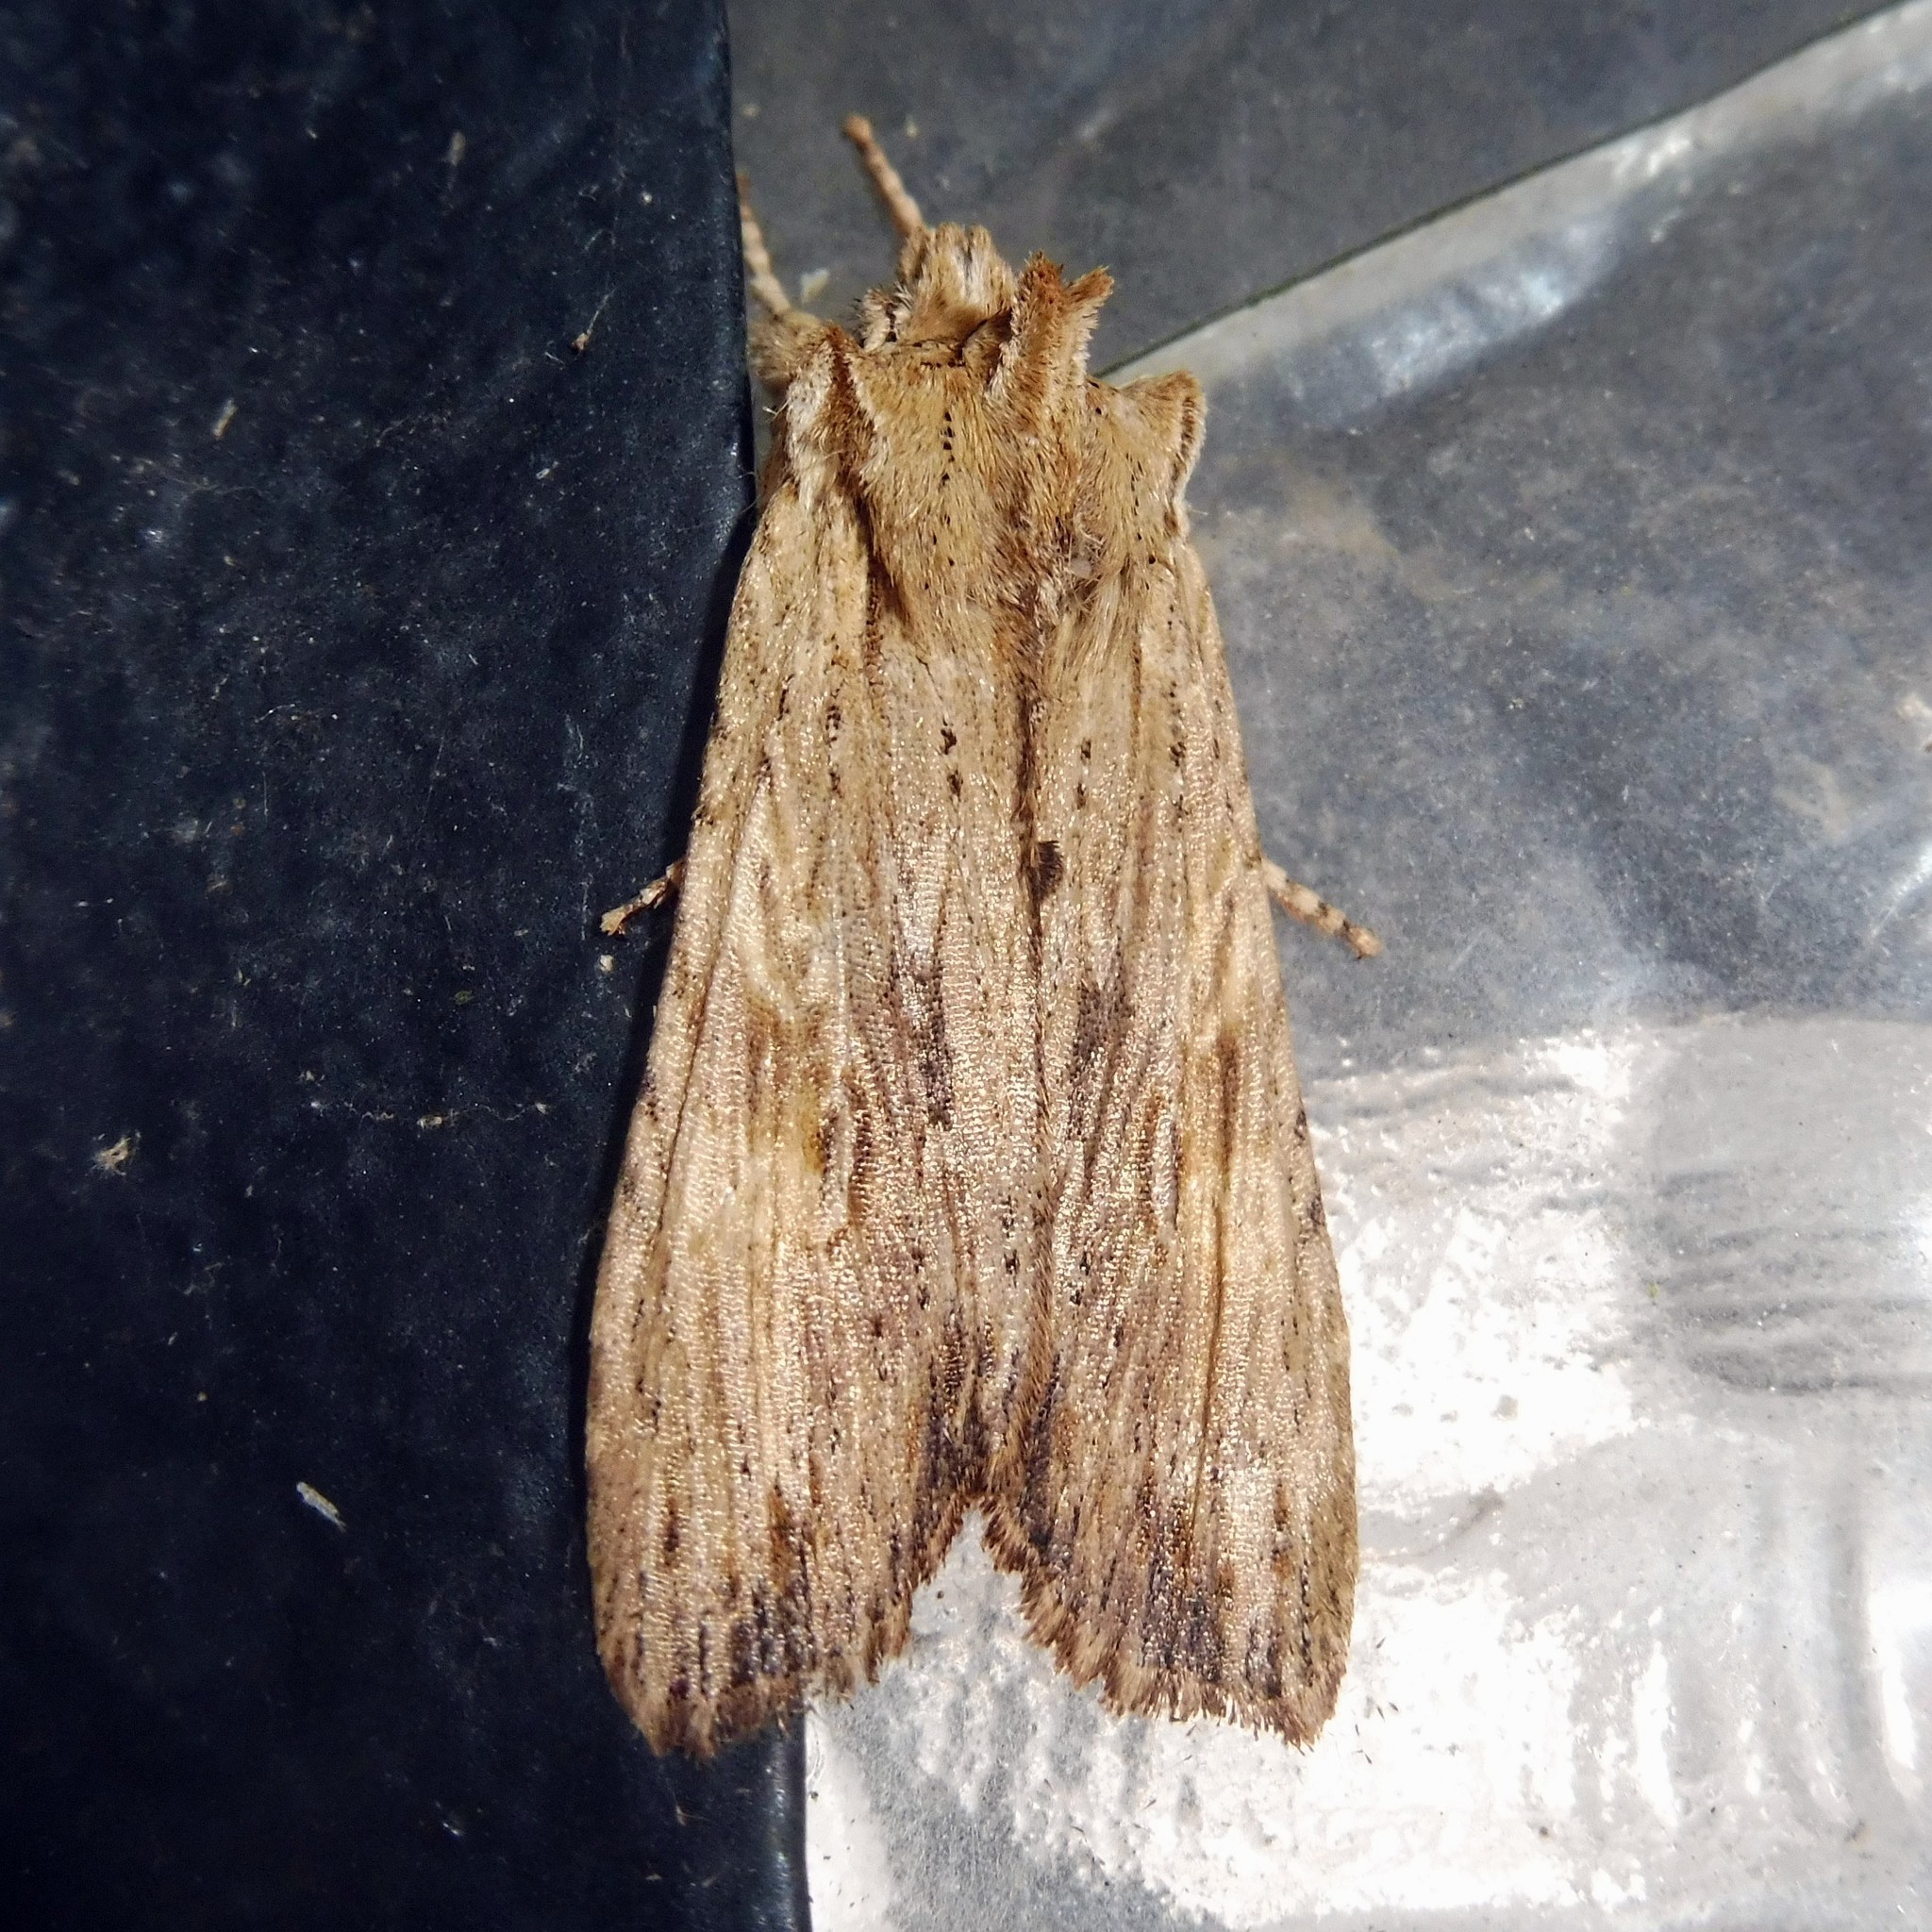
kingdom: Animalia
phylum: Arthropoda
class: Insecta
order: Lepidoptera
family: Noctuidae
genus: Lithophane
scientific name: Lithophane socia
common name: Pale pinion
